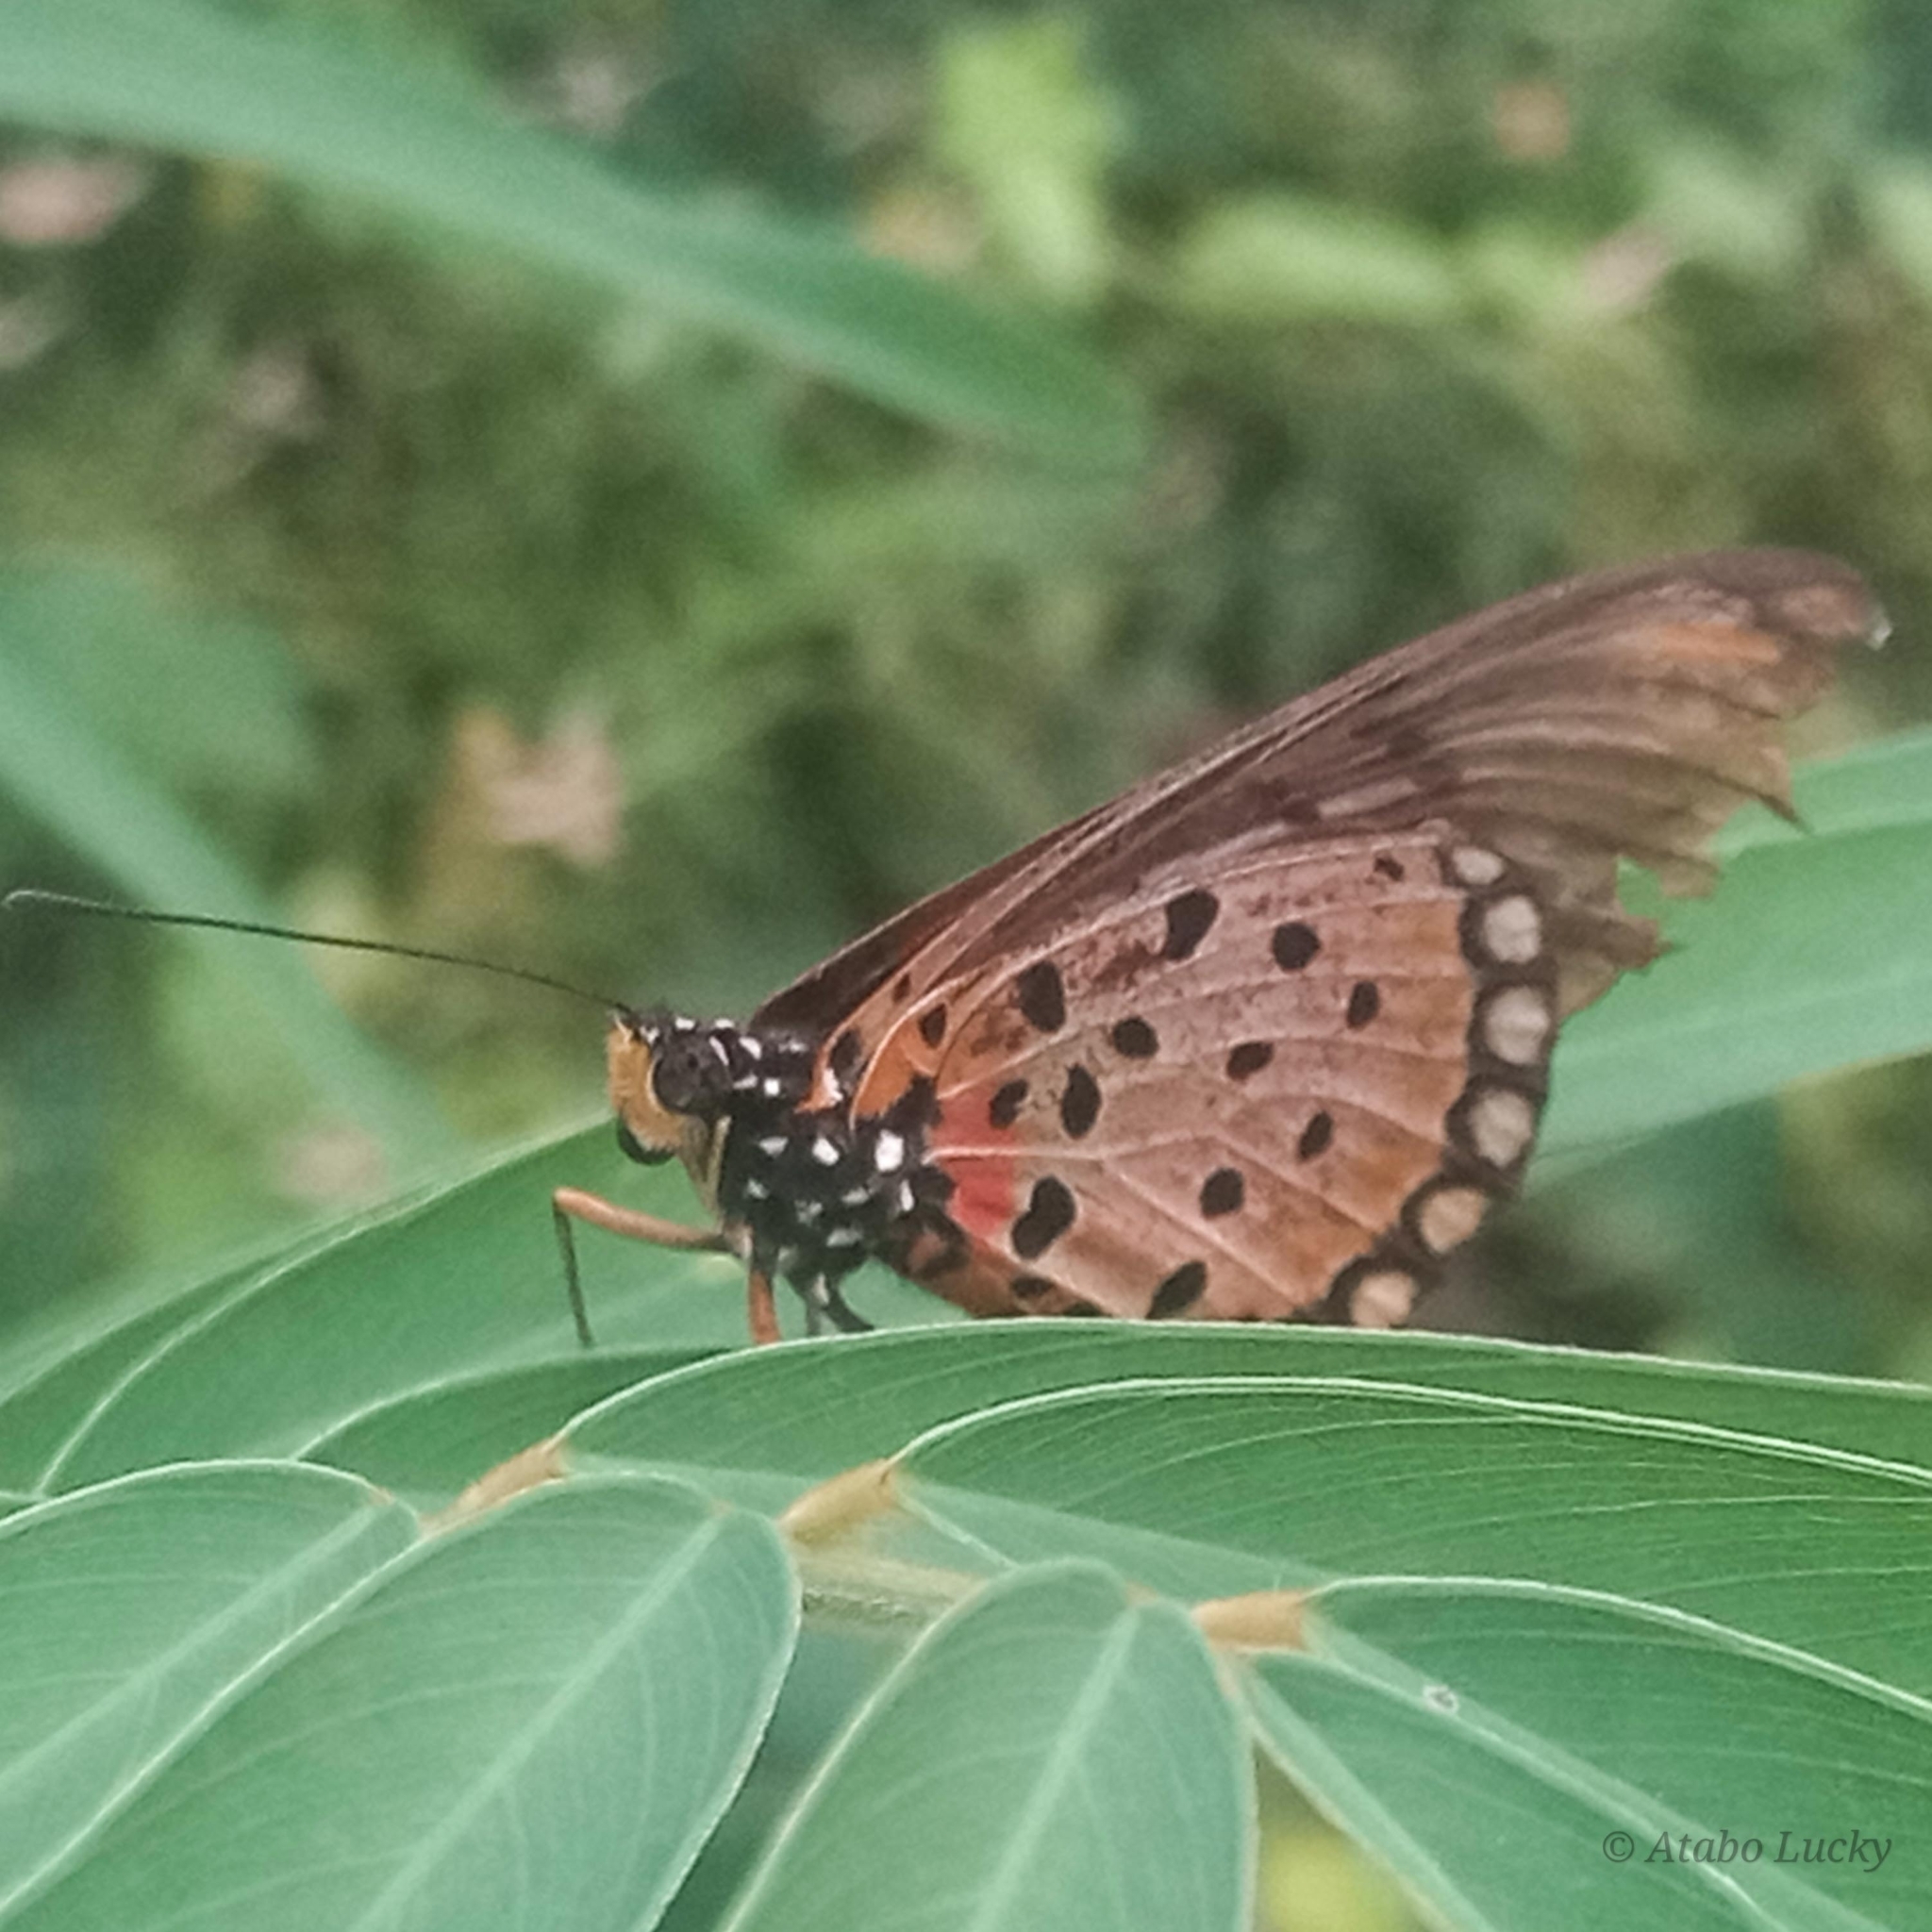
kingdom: Animalia
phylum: Arthropoda
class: Insecta
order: Lepidoptera
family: Nymphalidae
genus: Stephenia
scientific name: Stephenia
